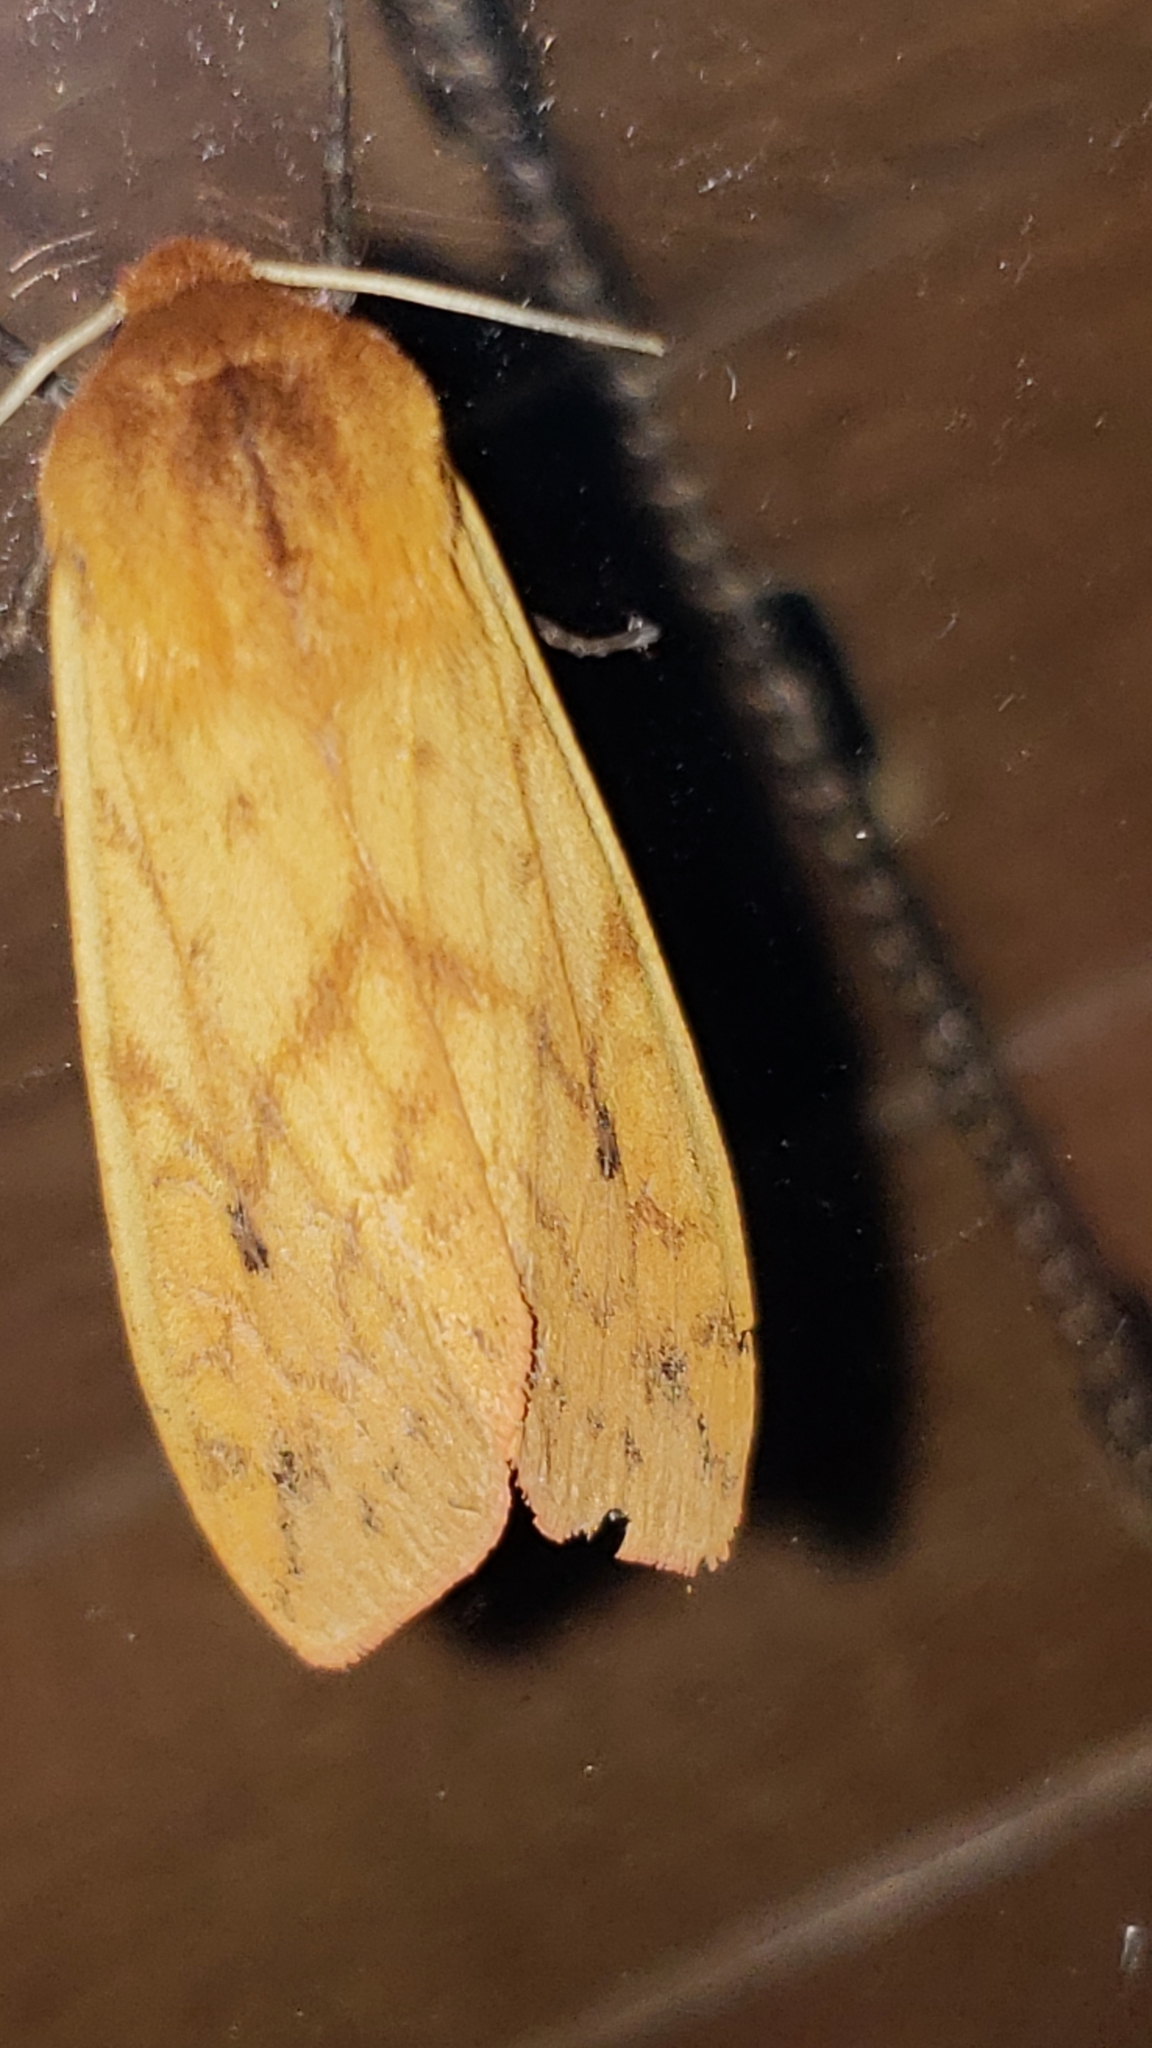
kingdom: Animalia
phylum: Arthropoda
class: Insecta
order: Lepidoptera
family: Erebidae
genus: Pyrrharctia
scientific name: Pyrrharctia isabella
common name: Isabella tiger moth
